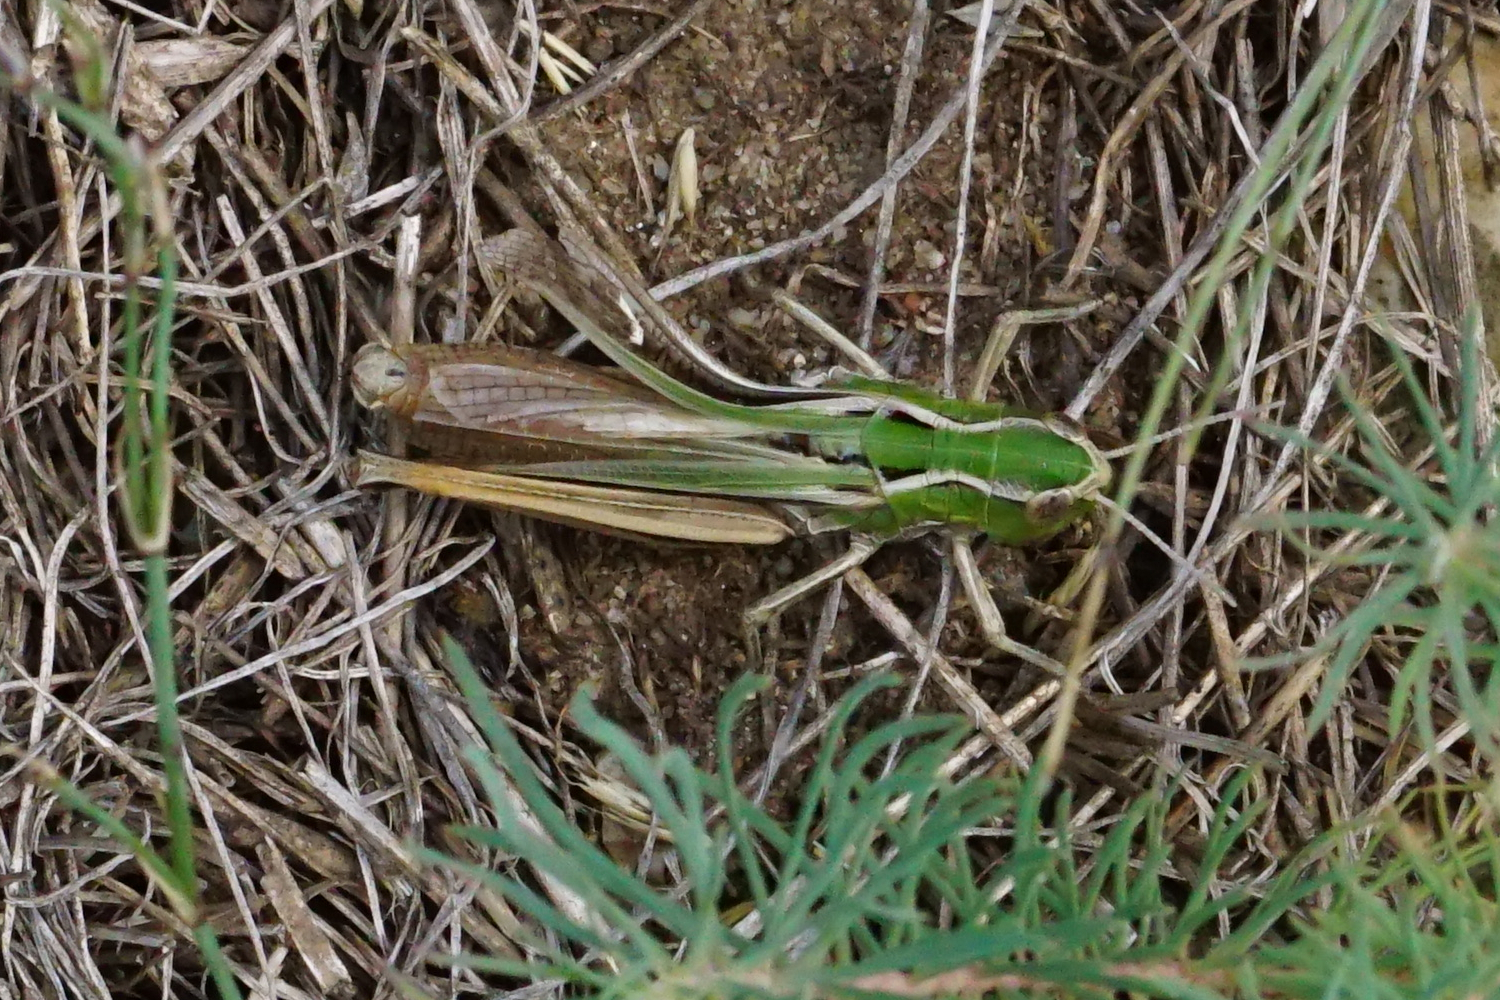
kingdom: Animalia
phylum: Arthropoda
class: Insecta
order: Orthoptera
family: Acrididae
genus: Stenobothrus
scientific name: Stenobothrus lineatus
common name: Stripe-winged grasshopper
